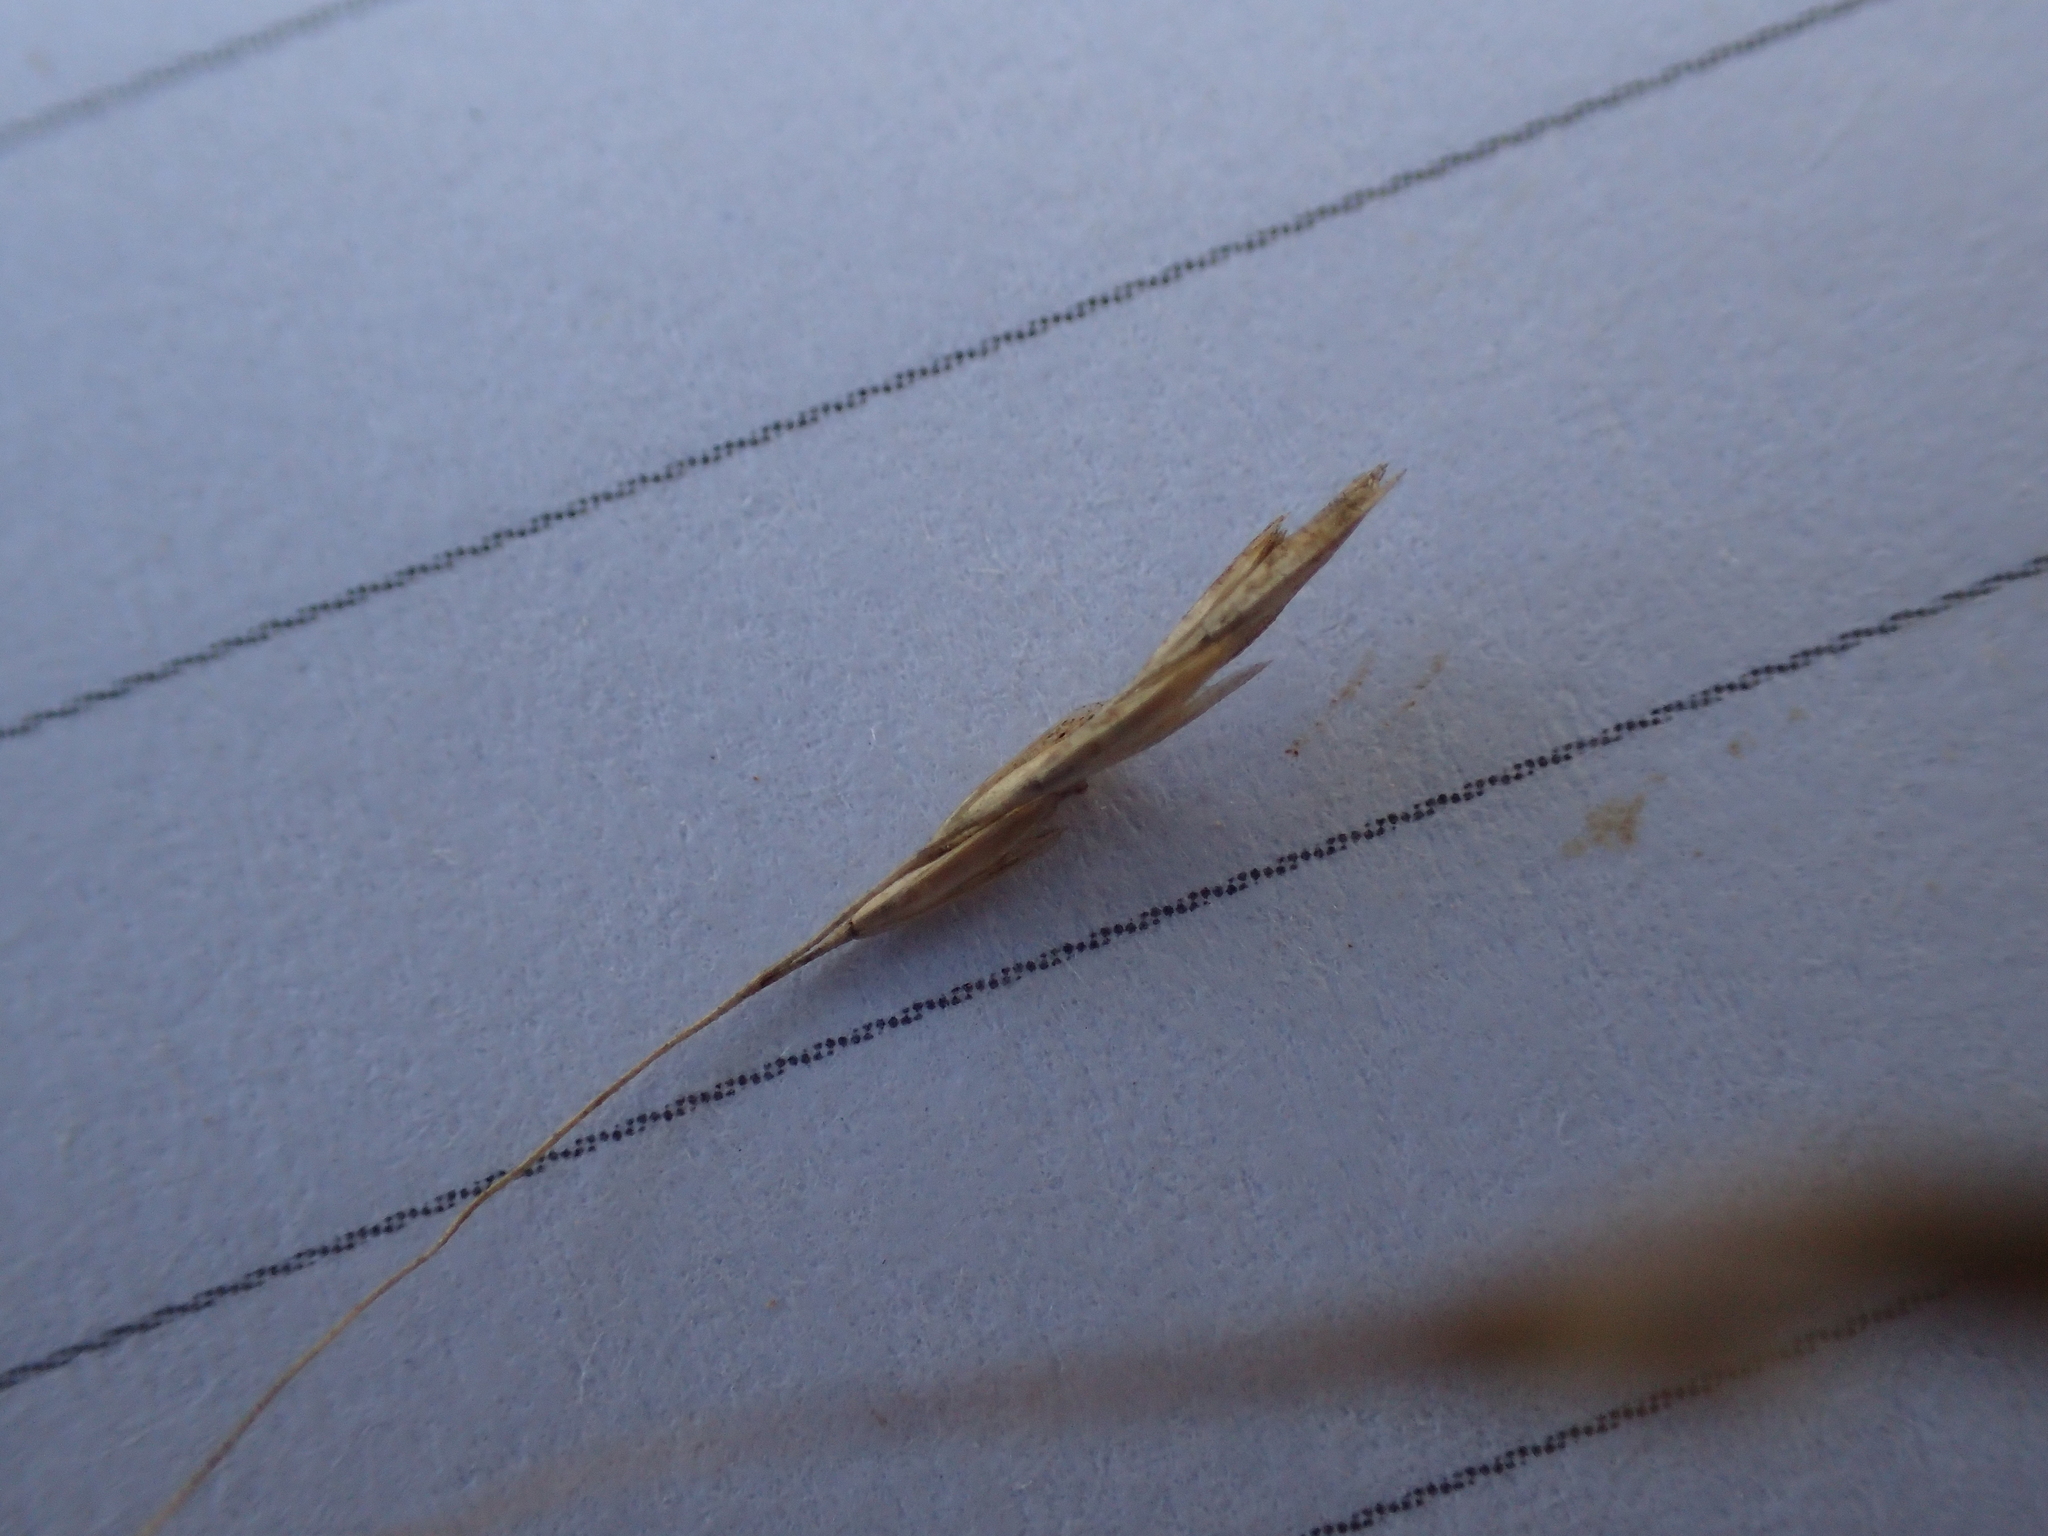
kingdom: Plantae
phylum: Tracheophyta
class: Liliopsida
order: Poales
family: Poaceae
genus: Deschampsia
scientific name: Deschampsia media
